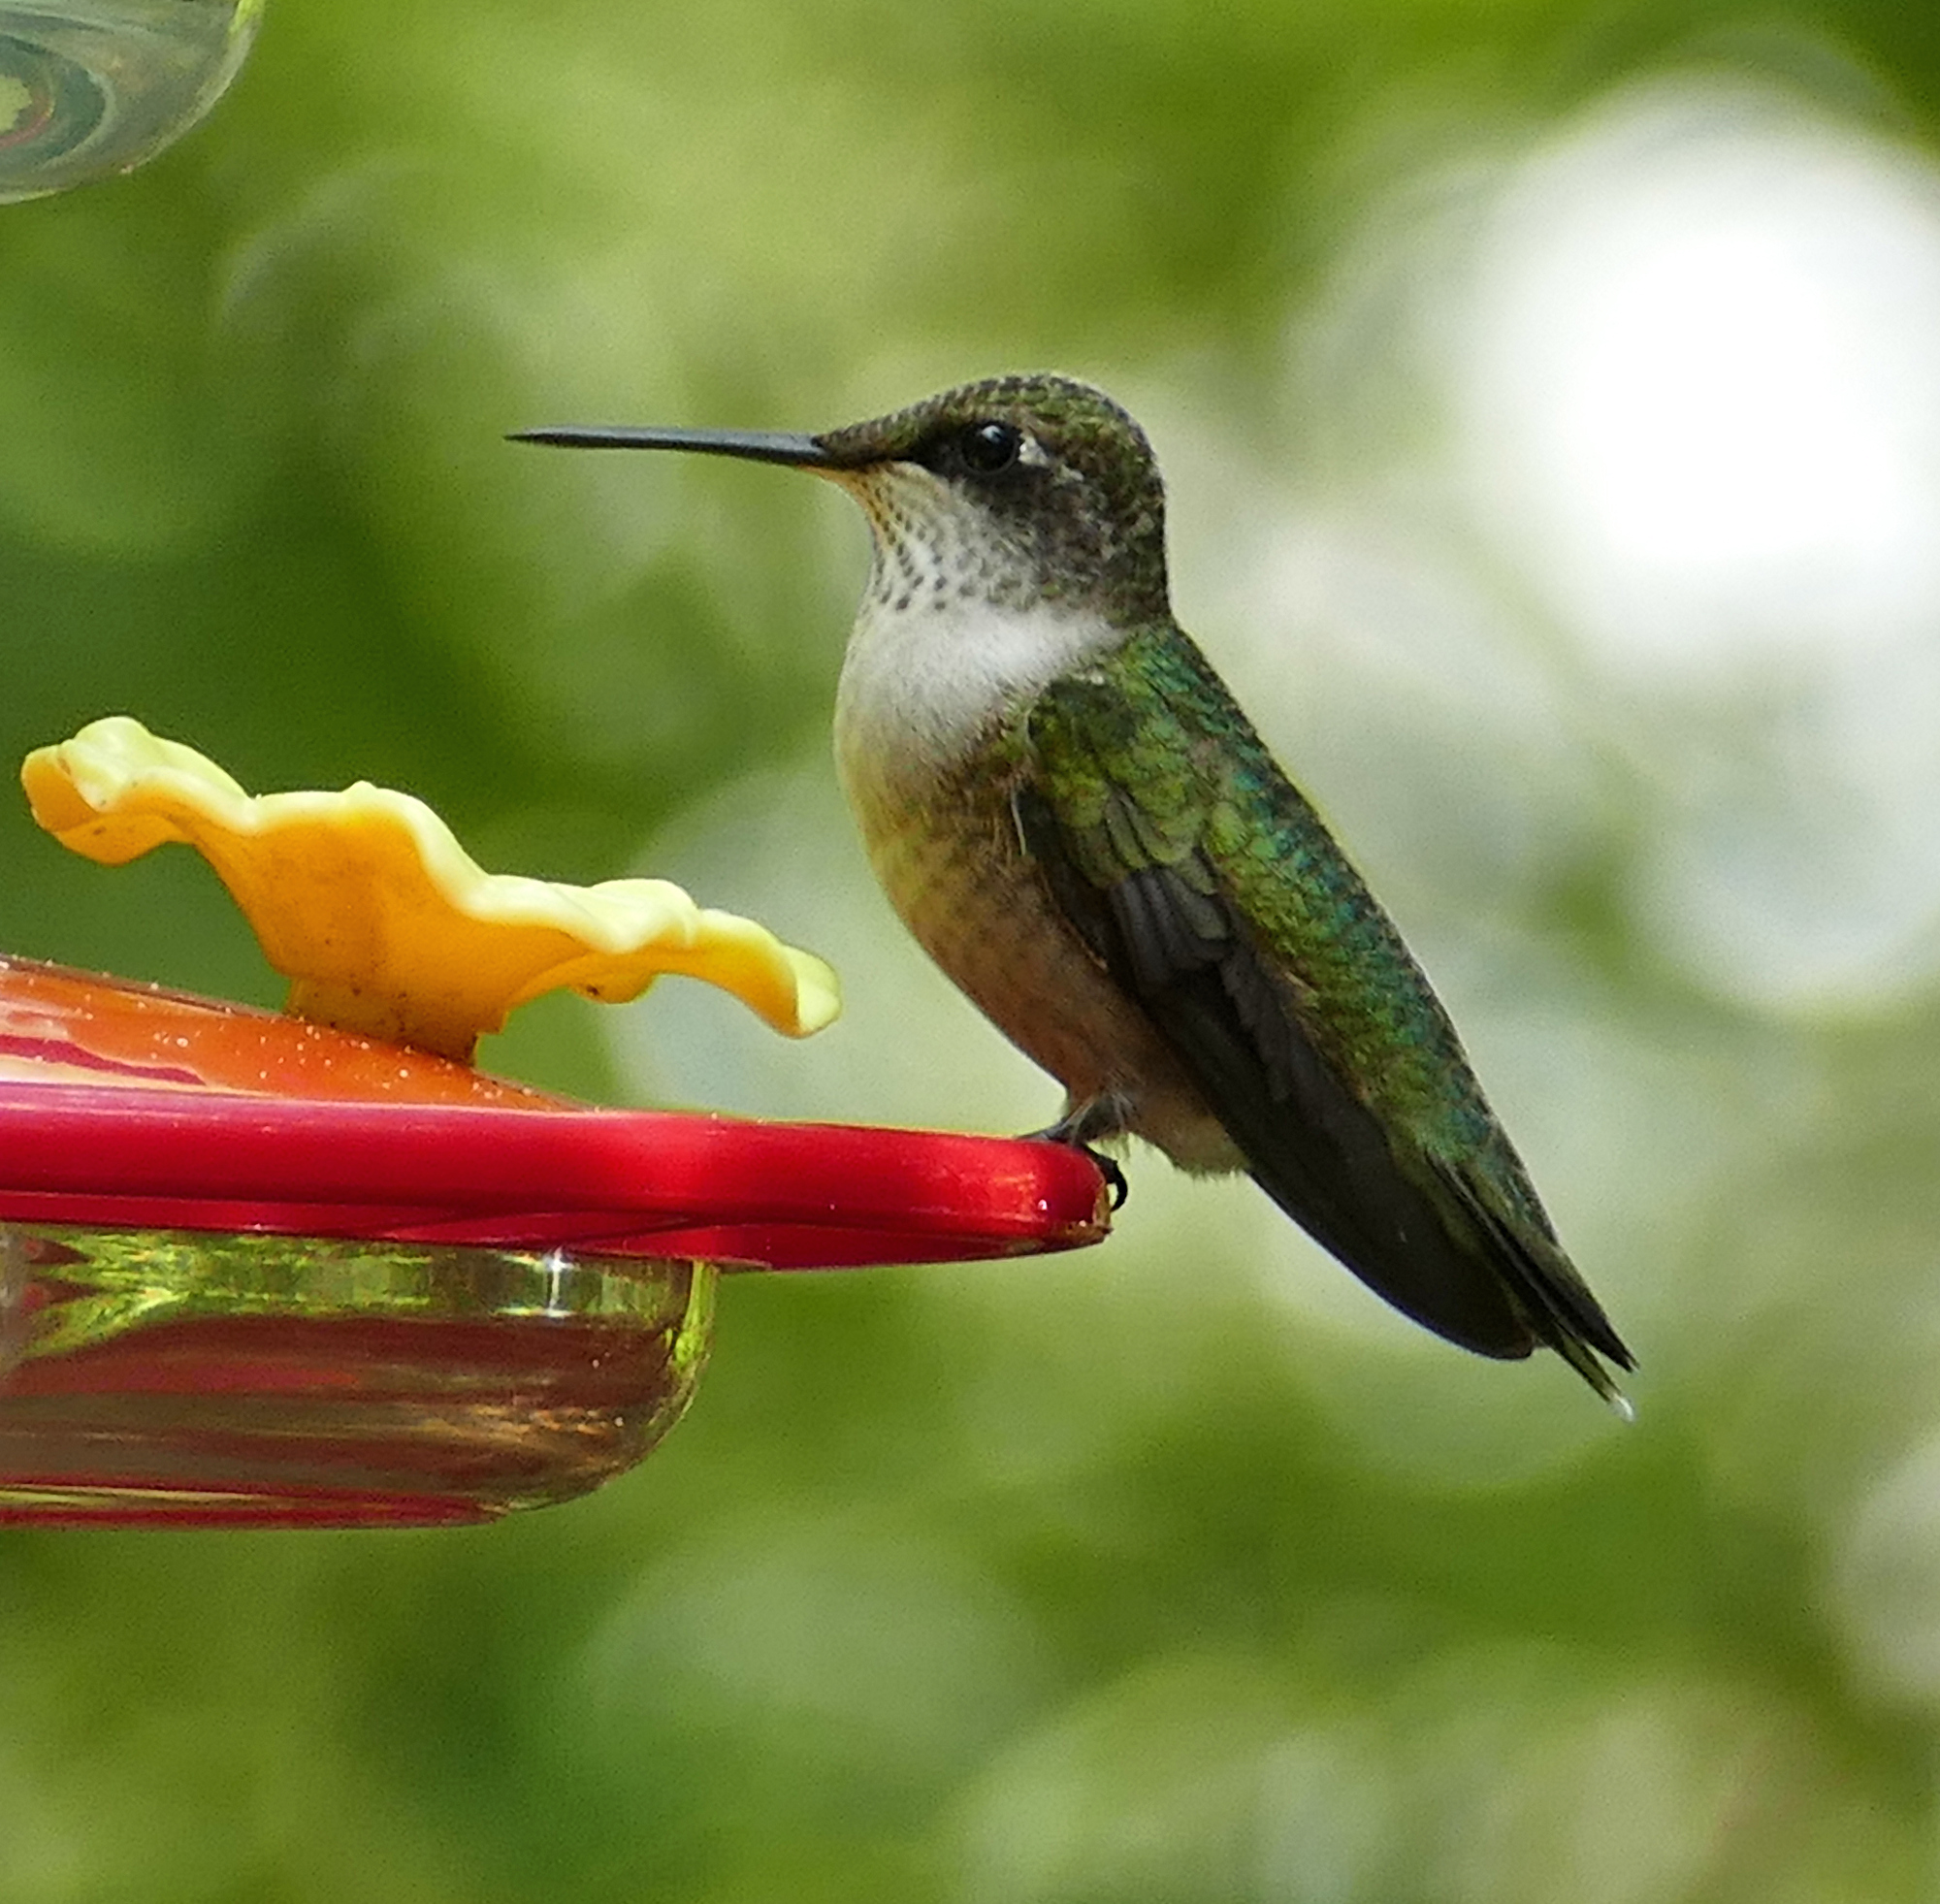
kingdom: Animalia
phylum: Chordata
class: Aves
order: Apodiformes
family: Trochilidae
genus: Archilochus
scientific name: Archilochus colubris
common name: Ruby-throated hummingbird
